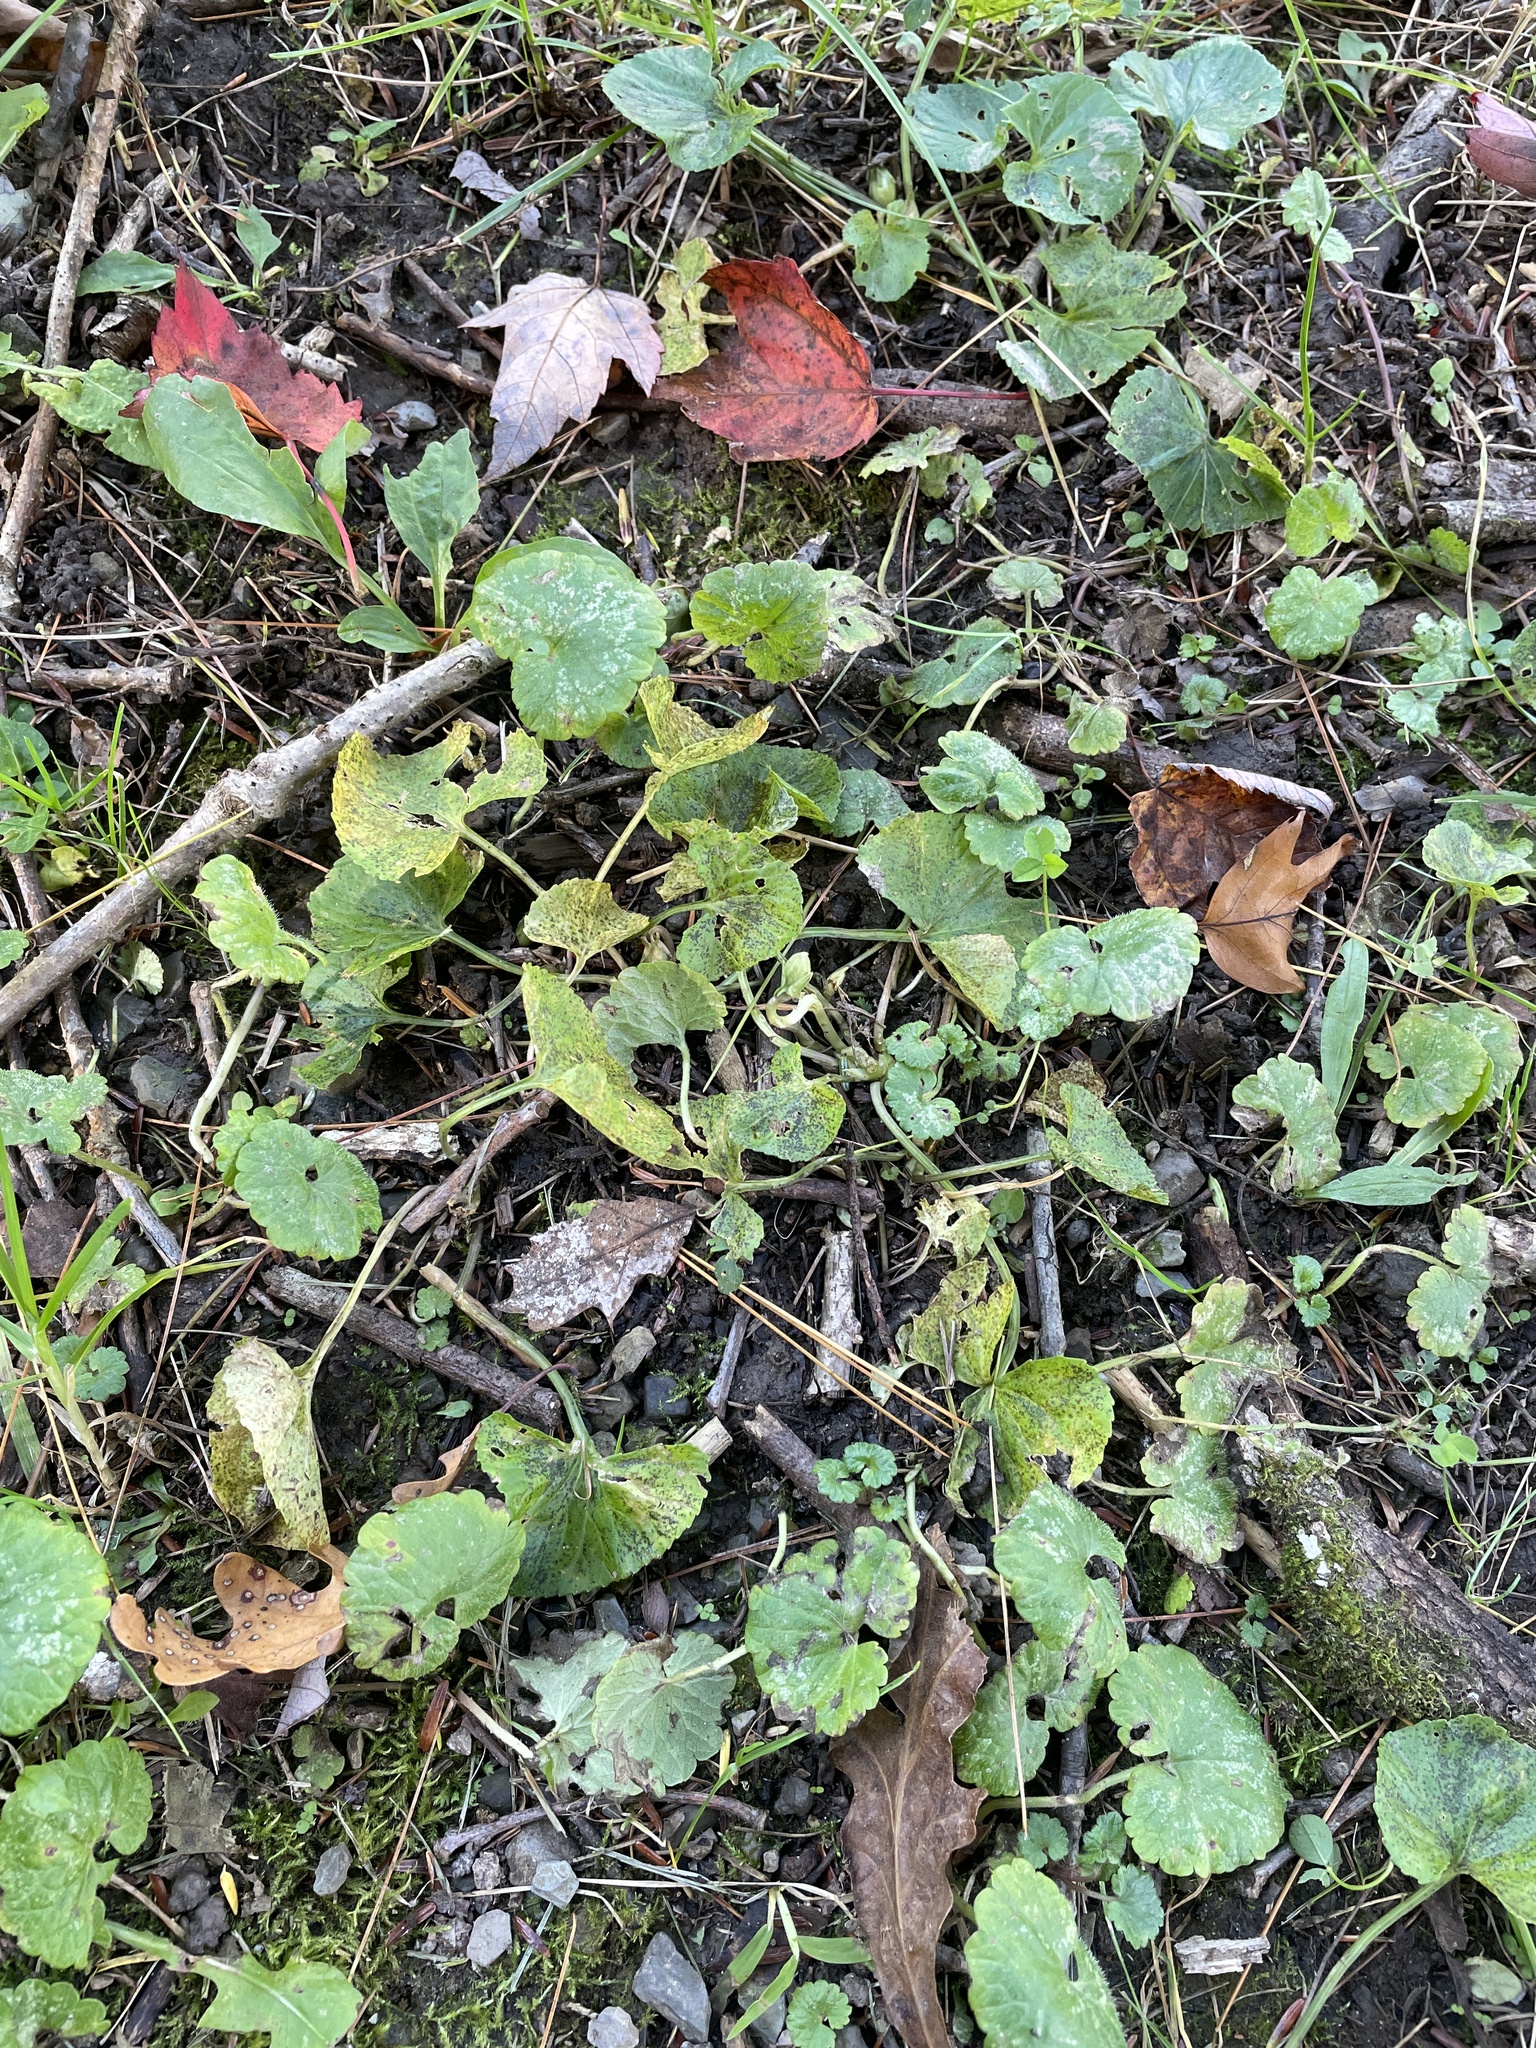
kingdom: Plantae
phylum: Tracheophyta
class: Magnoliopsida
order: Malpighiales
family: Violaceae
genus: Viola
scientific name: Viola sororia
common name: Dooryard violet
